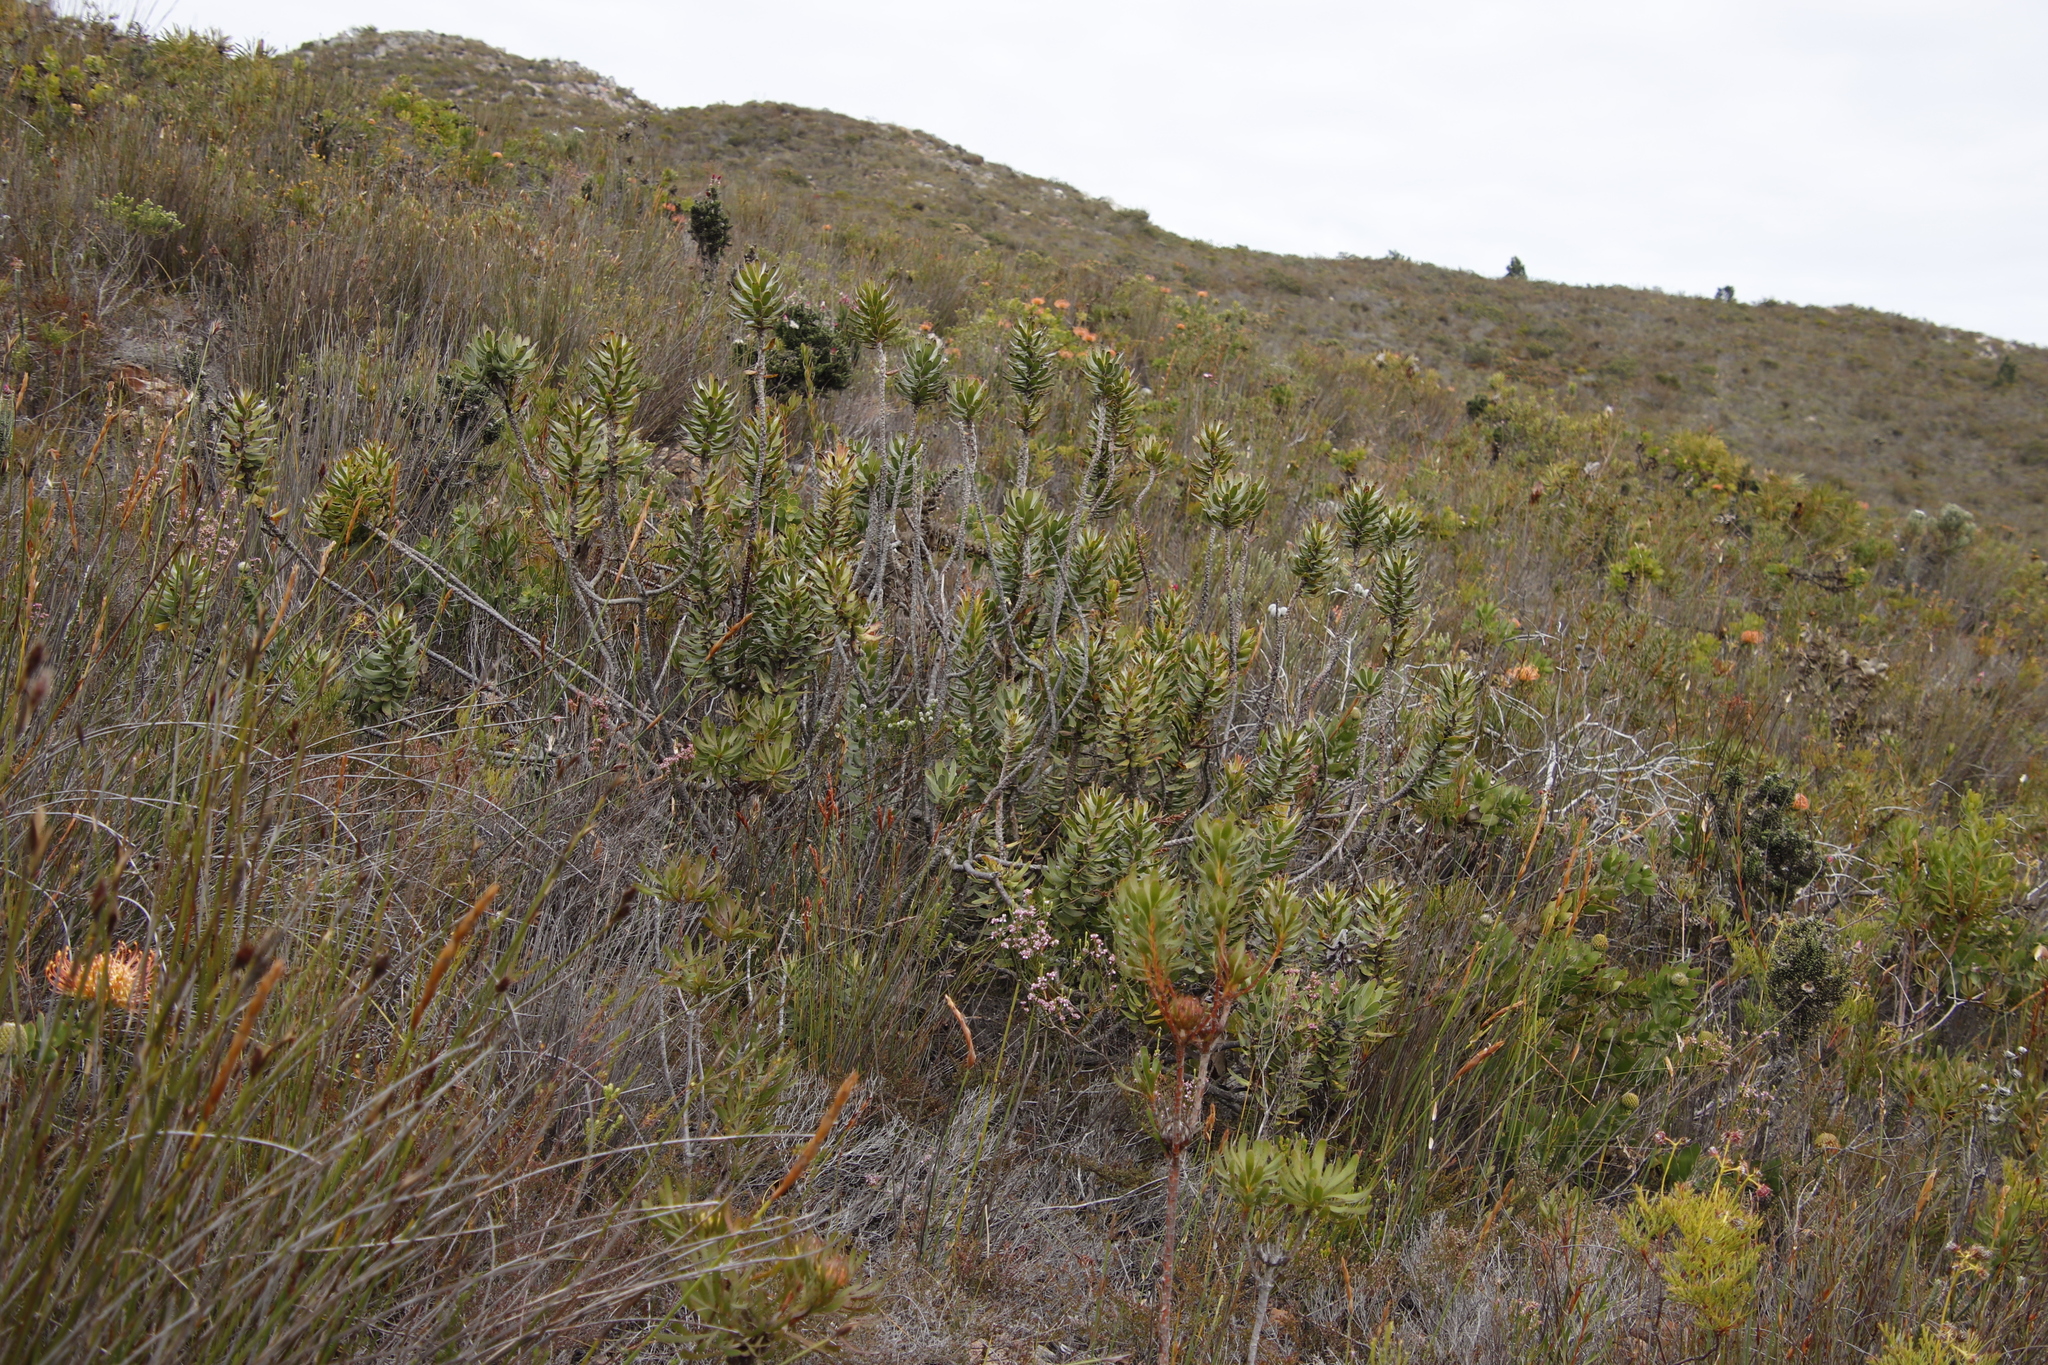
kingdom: Plantae
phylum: Tracheophyta
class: Magnoliopsida
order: Proteales
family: Proteaceae
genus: Mimetes
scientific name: Mimetes cucullatus
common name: Common pagoda
